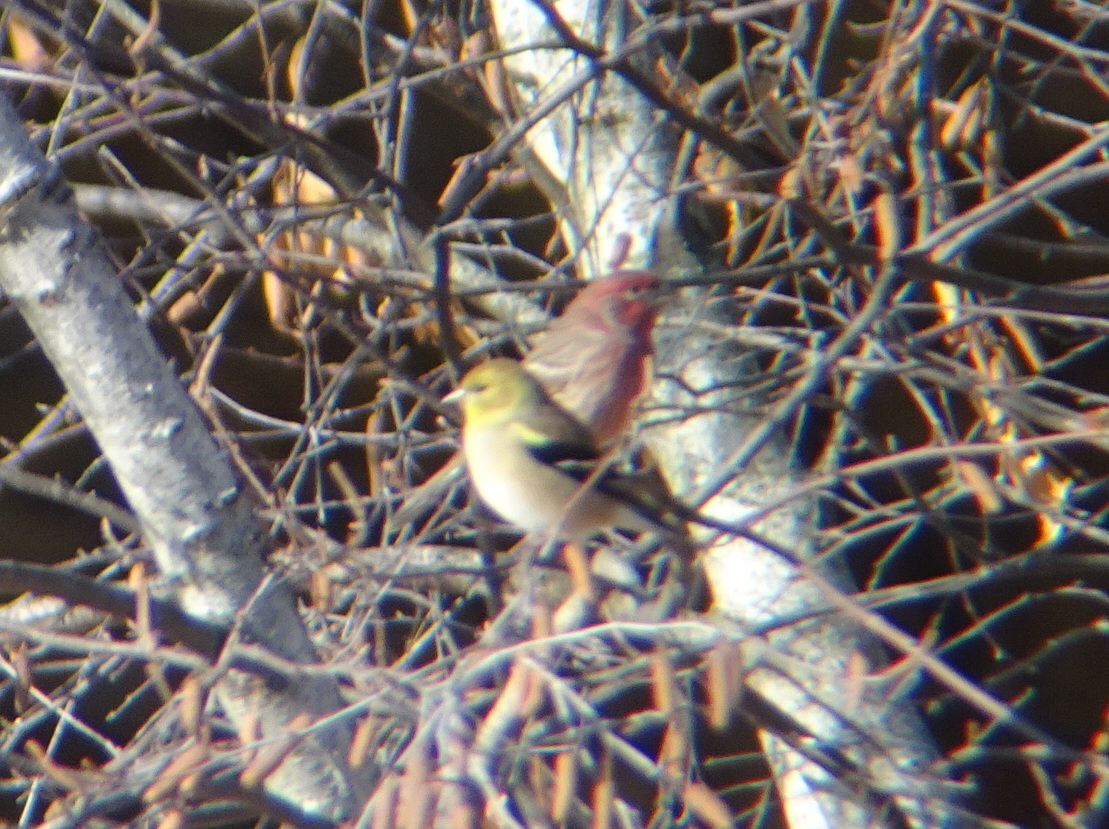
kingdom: Animalia
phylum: Chordata
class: Aves
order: Passeriformes
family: Fringillidae
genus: Haemorhous
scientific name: Haemorhous mexicanus
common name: House finch
